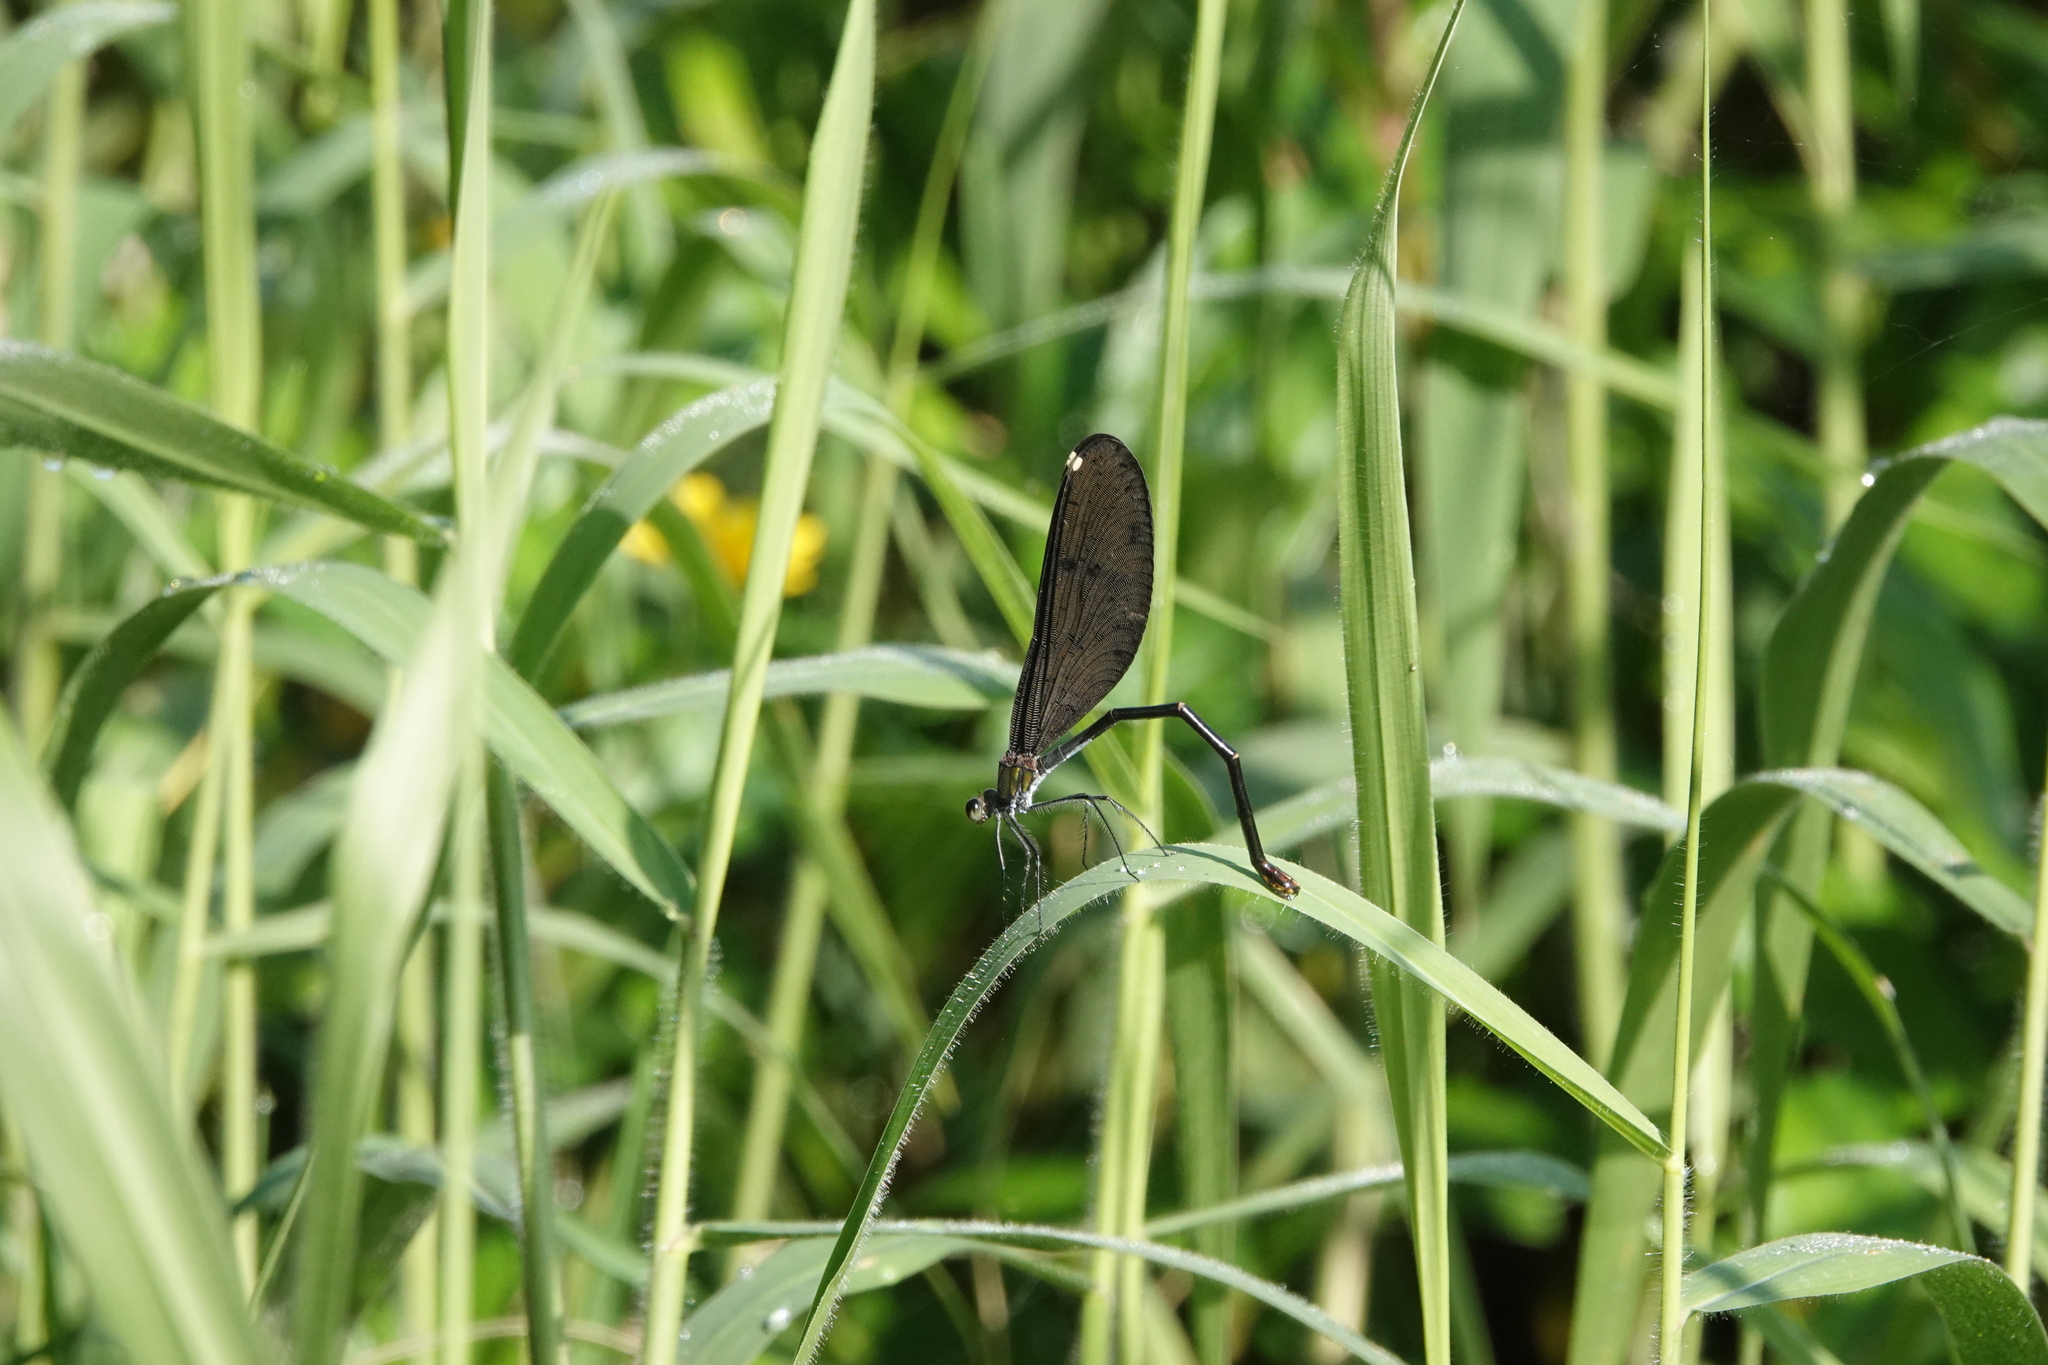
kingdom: Animalia
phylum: Arthropoda
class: Insecta
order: Odonata
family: Calopterygidae
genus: Matrona
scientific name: Matrona cyanoptera
